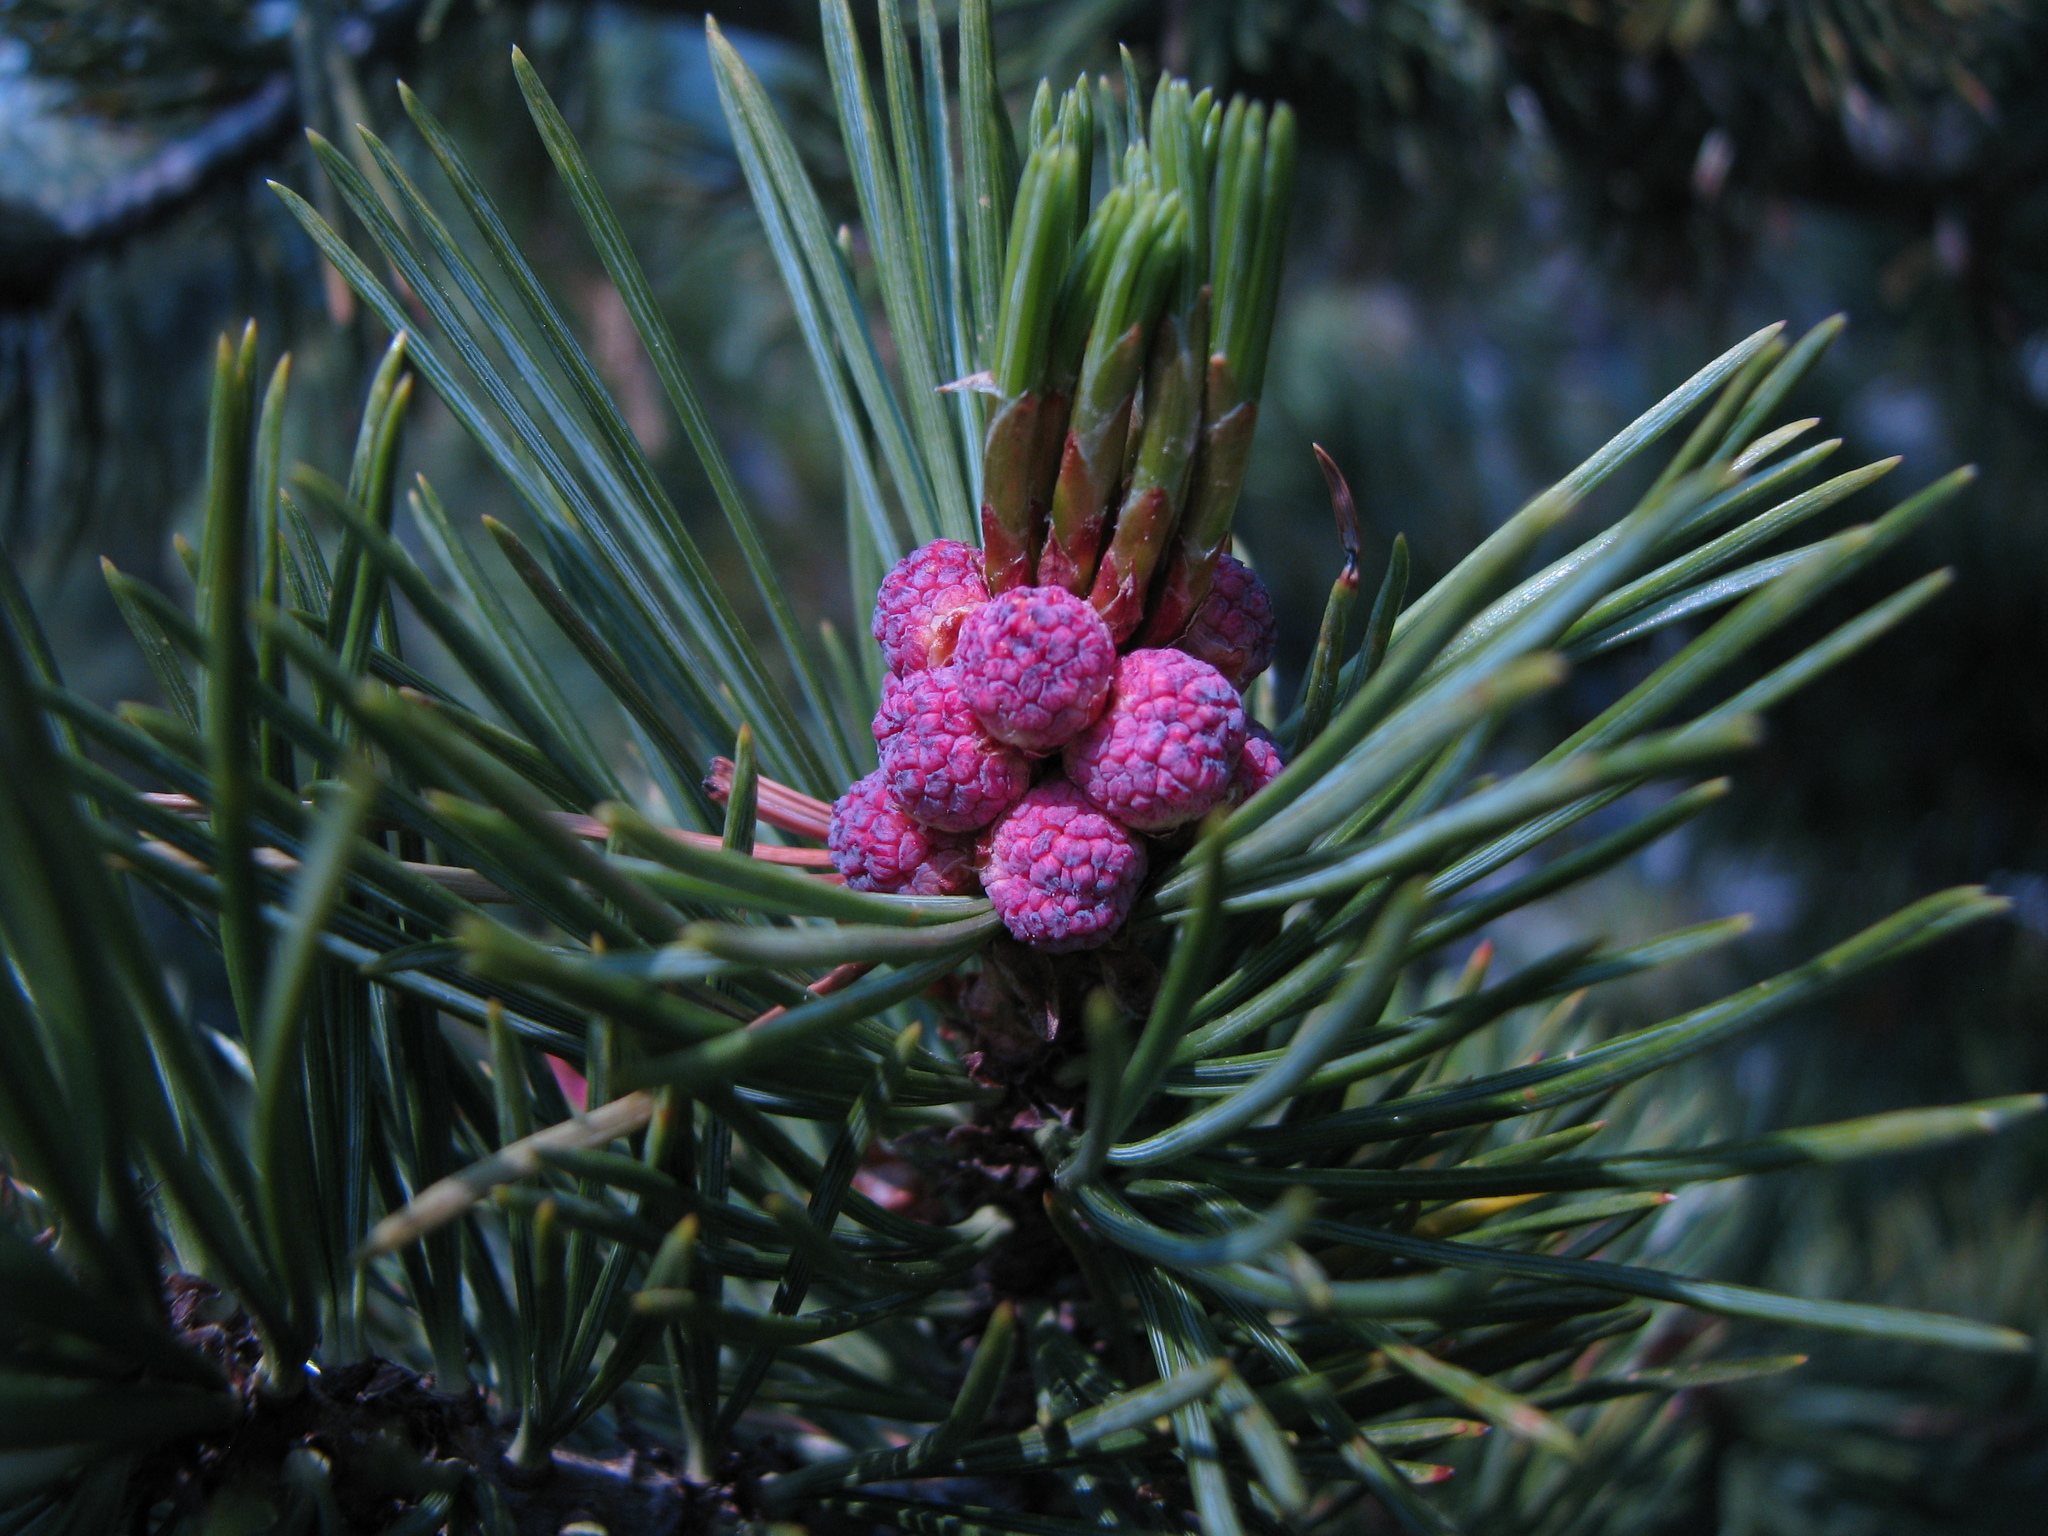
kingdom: Plantae
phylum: Tracheophyta
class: Pinopsida
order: Pinales
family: Pinaceae
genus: Pinus
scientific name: Pinus albicaulis
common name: Whitebark pine
